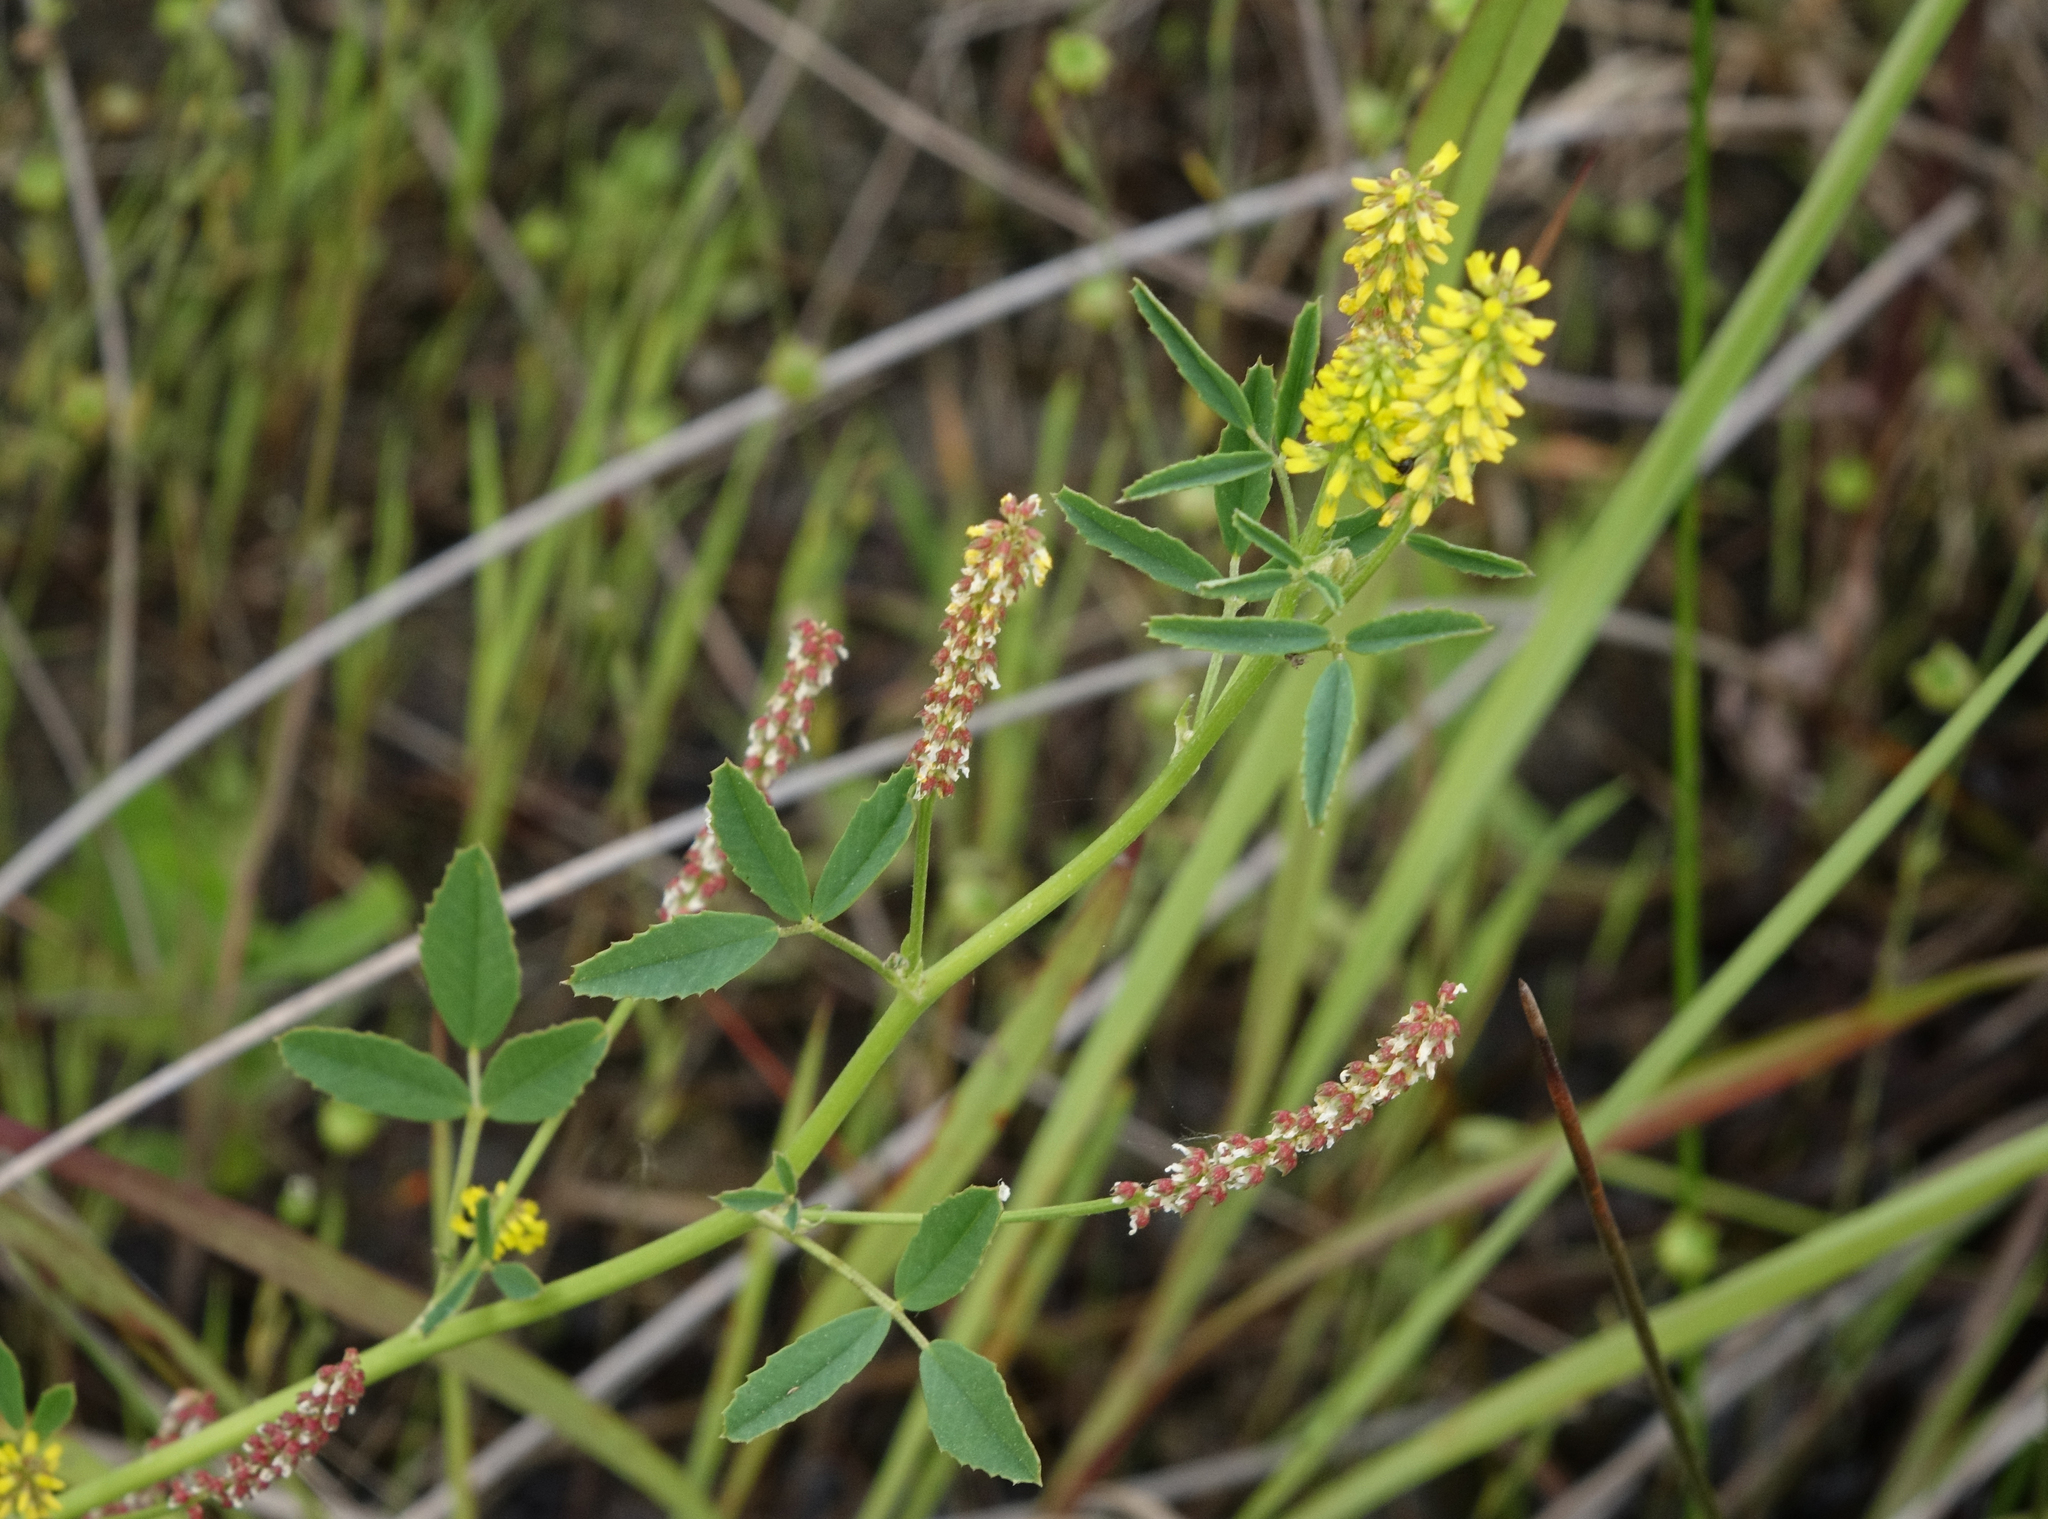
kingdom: Plantae
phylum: Tracheophyta
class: Magnoliopsida
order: Fabales
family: Fabaceae
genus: Melilotus
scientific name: Melilotus officinalis
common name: Sweetclover
